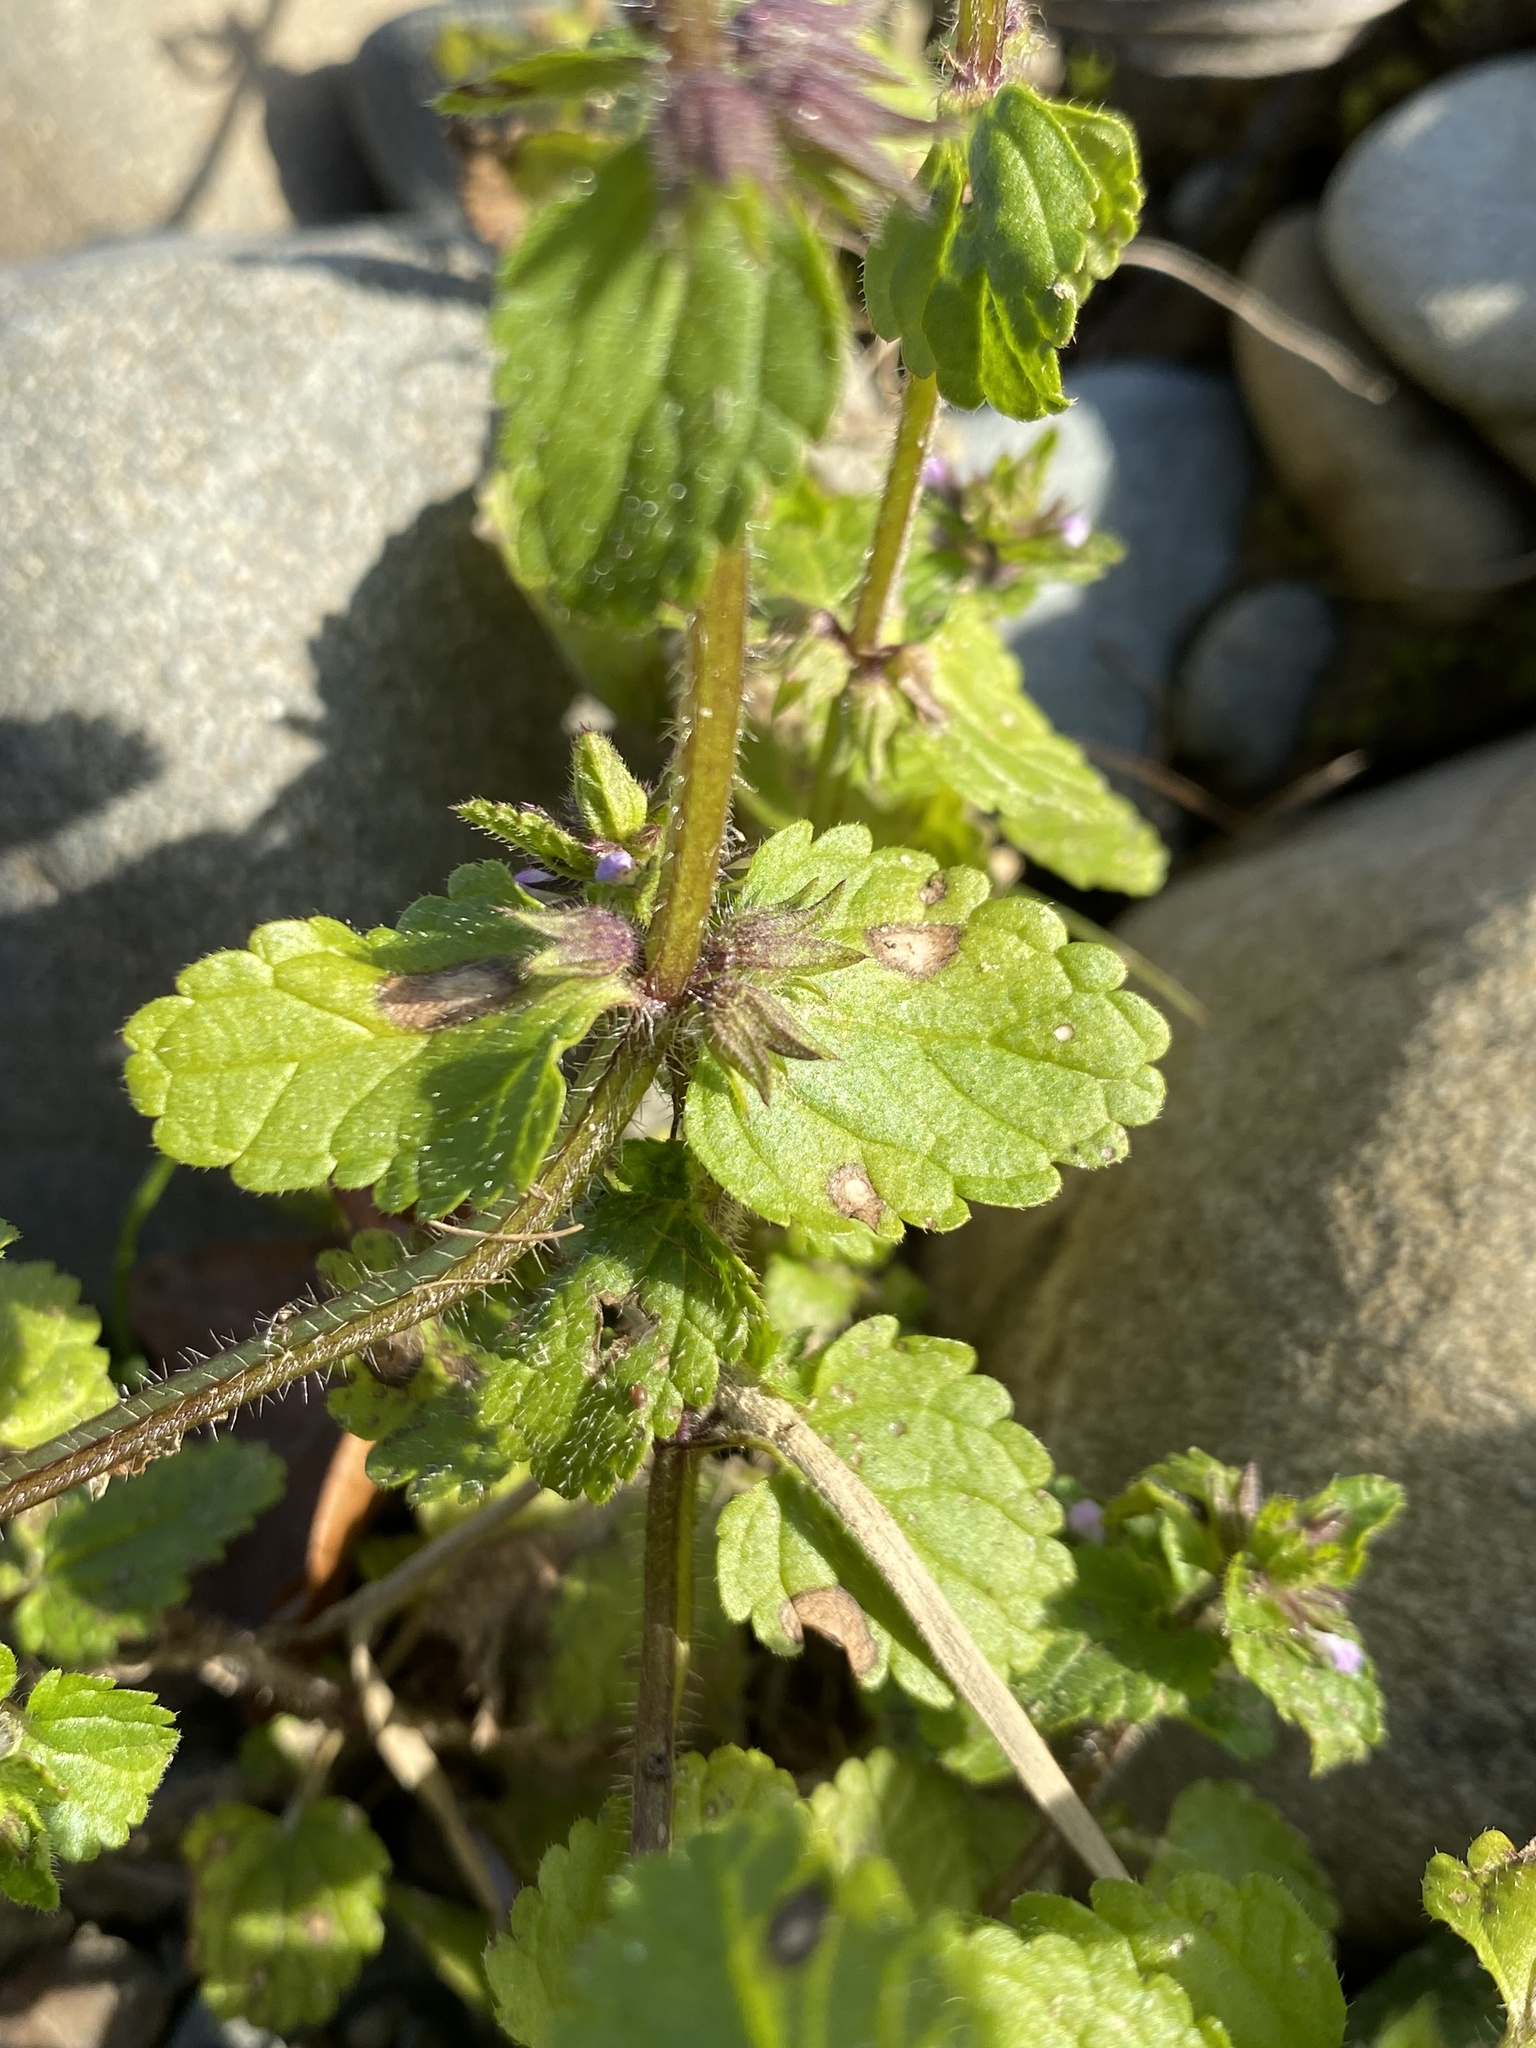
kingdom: Plantae
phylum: Tracheophyta
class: Magnoliopsida
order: Lamiales
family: Lamiaceae
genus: Stachys
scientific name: Stachys arvensis
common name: Field woundwort
